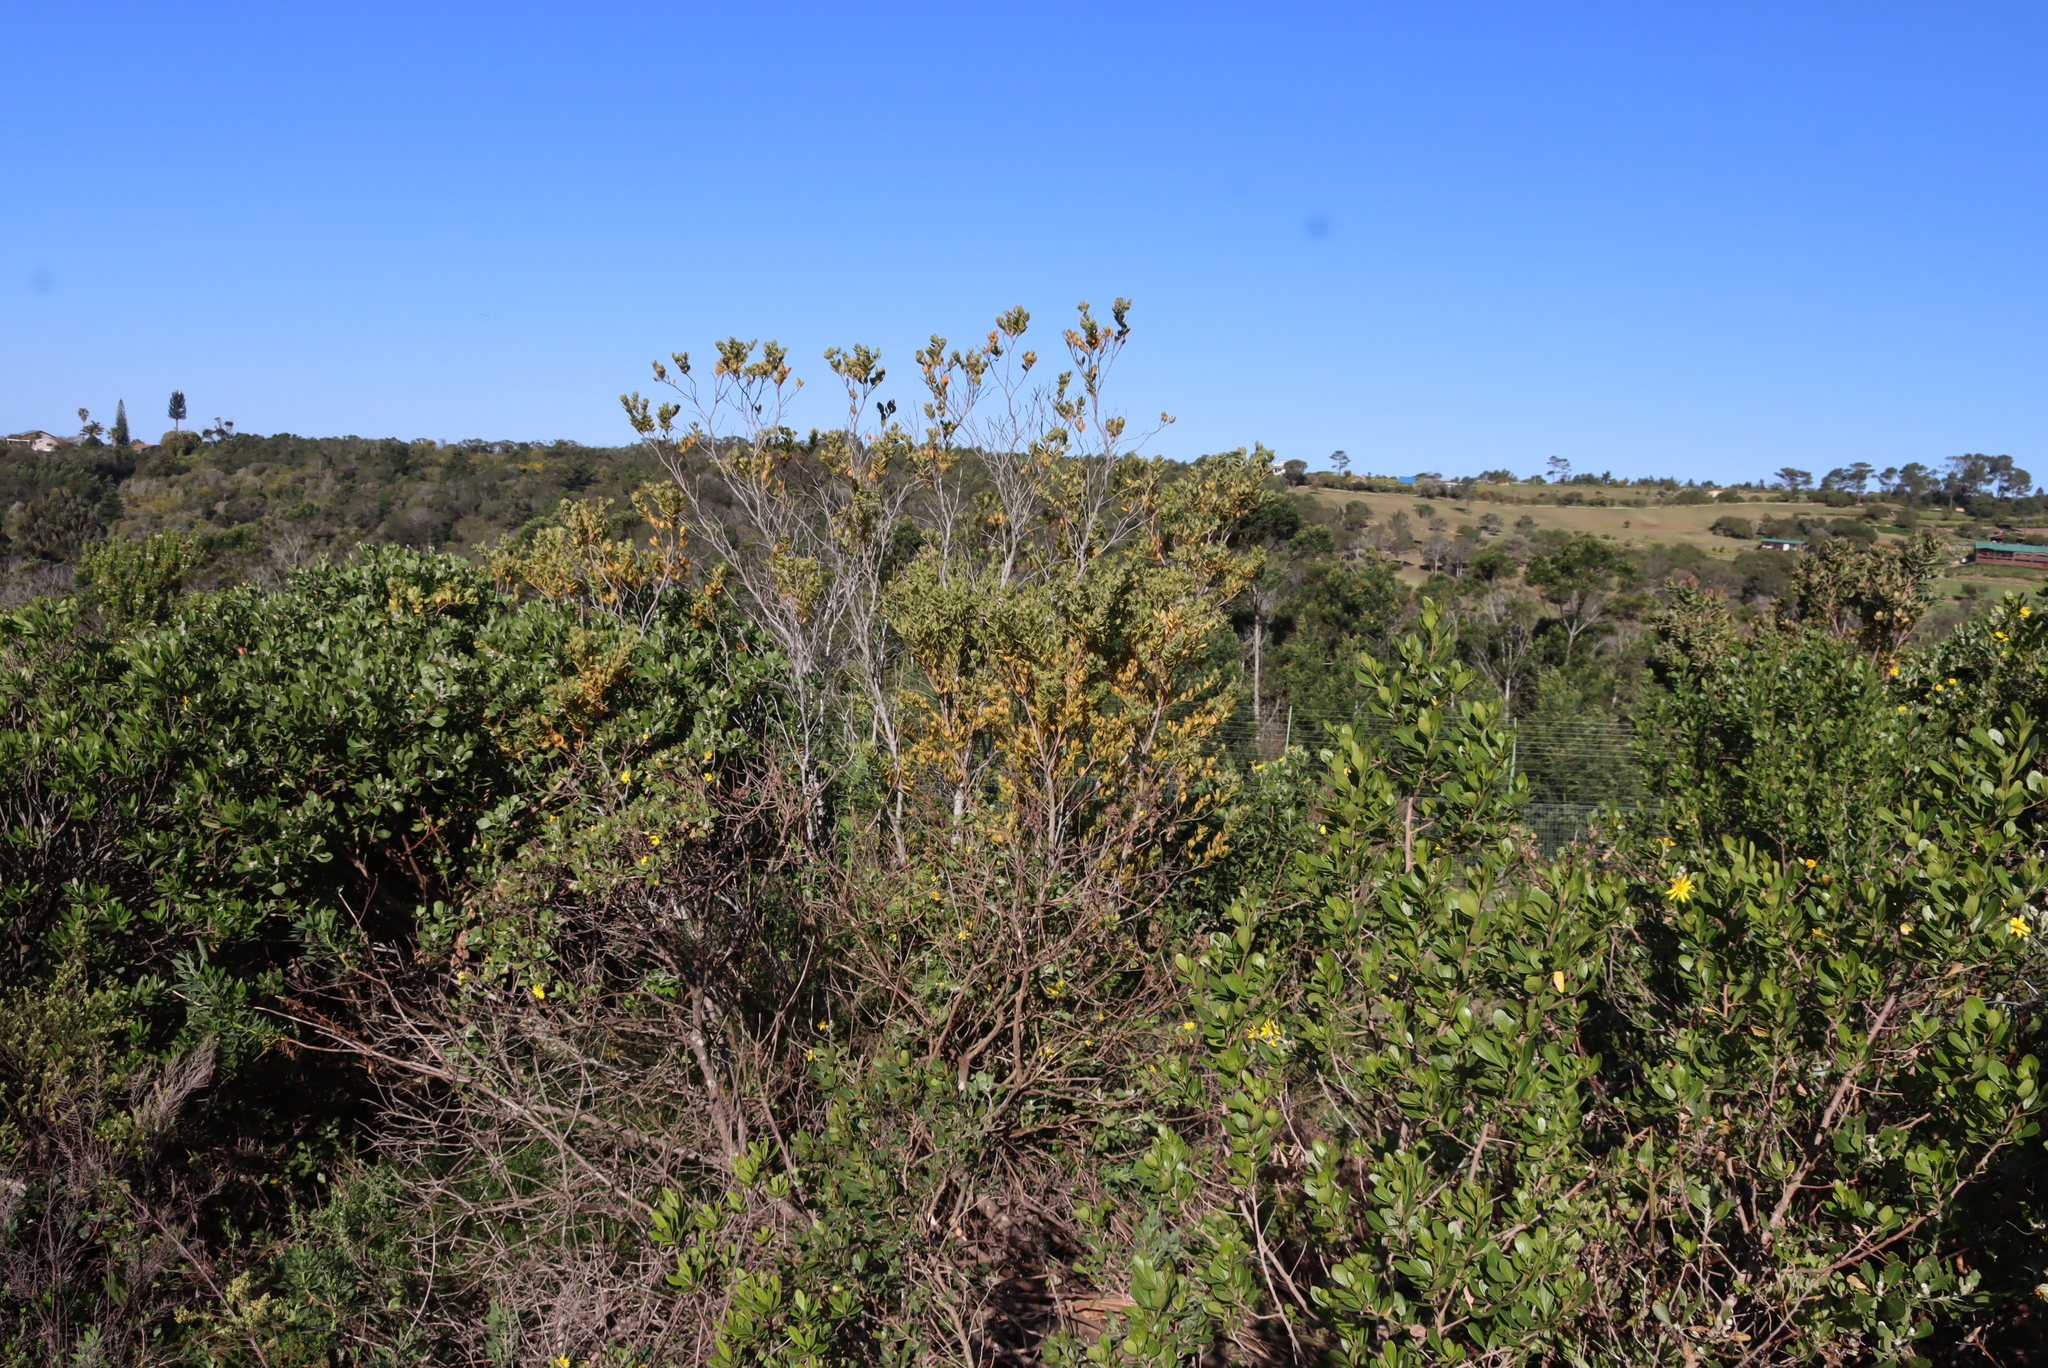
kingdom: Plantae
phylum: Tracheophyta
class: Magnoliopsida
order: Santalales
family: Santalaceae
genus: Osyris
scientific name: Osyris compressa
